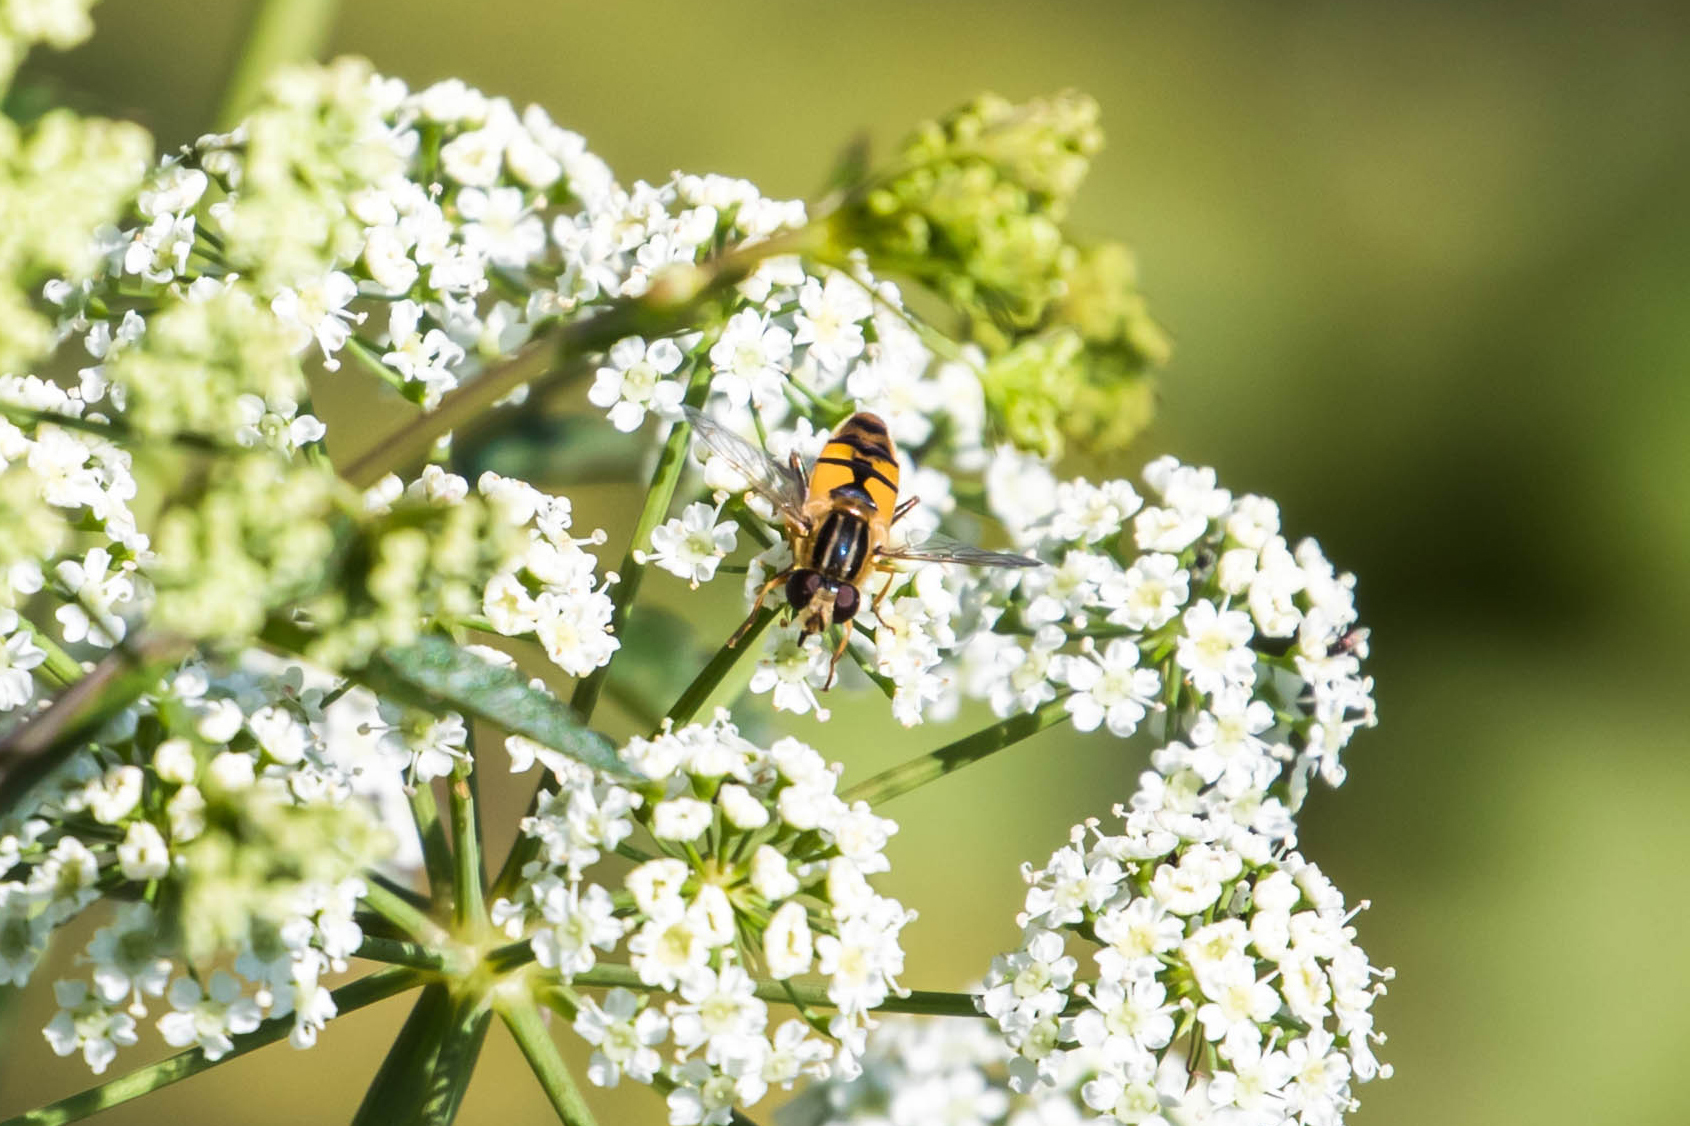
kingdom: Animalia
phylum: Arthropoda
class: Insecta
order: Diptera
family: Syrphidae
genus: Helophilus
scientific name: Helophilus latifrons
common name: Broad-headed marsh fly
